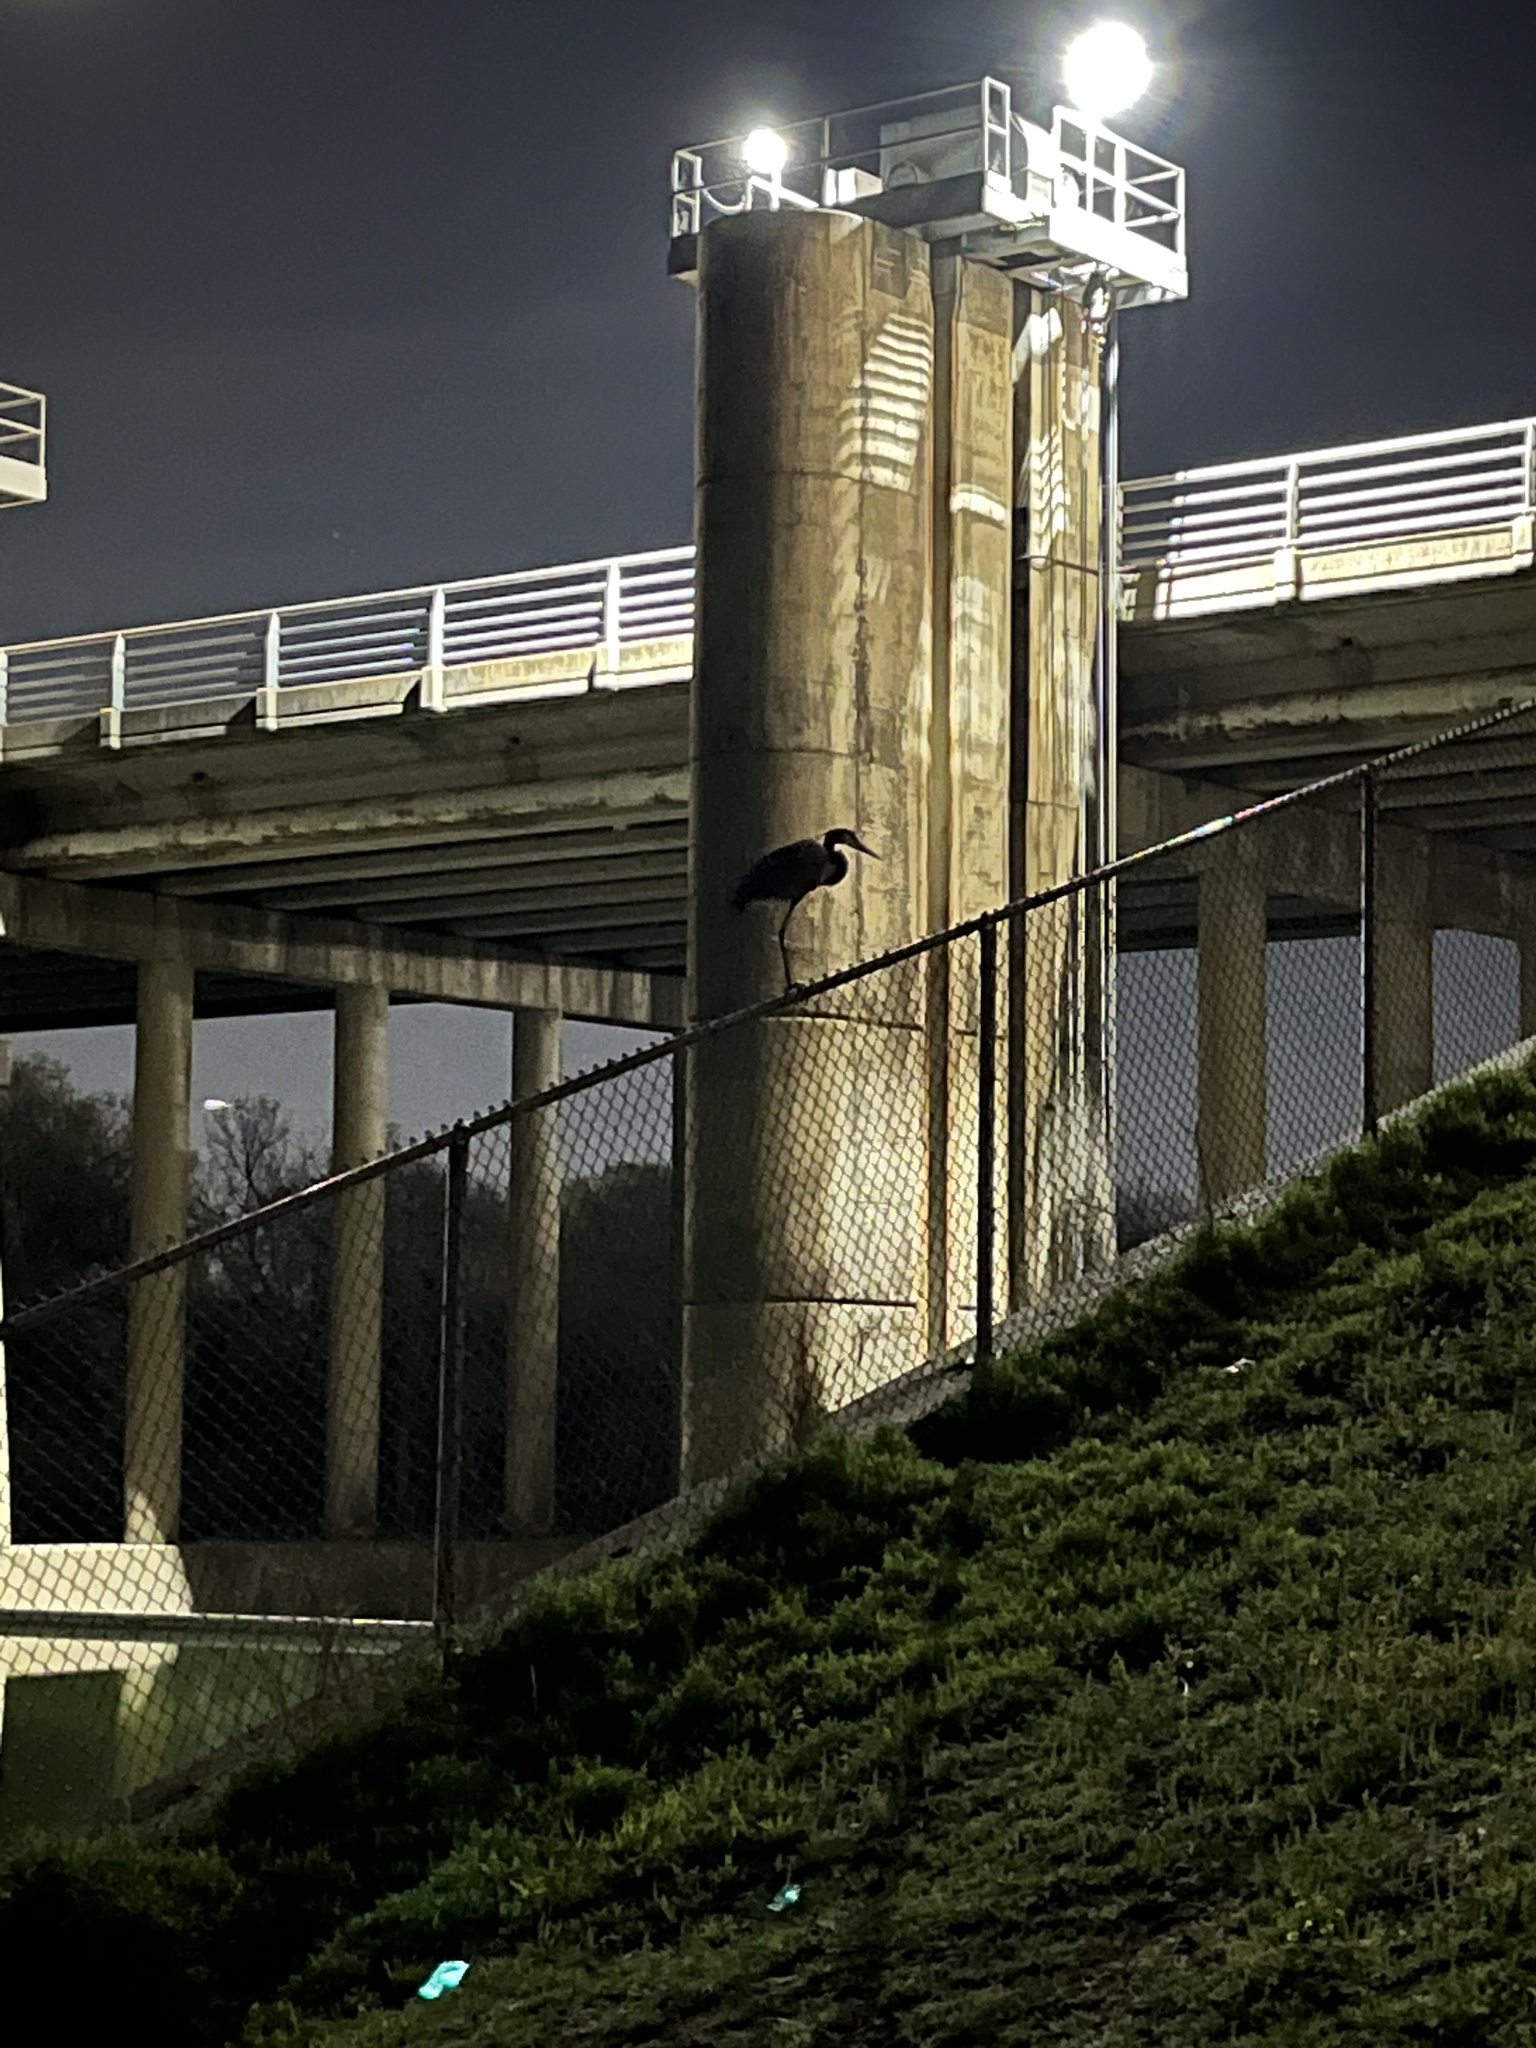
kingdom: Animalia
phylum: Chordata
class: Aves
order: Pelecaniformes
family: Ardeidae
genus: Ardea
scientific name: Ardea herodias
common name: Great blue heron
